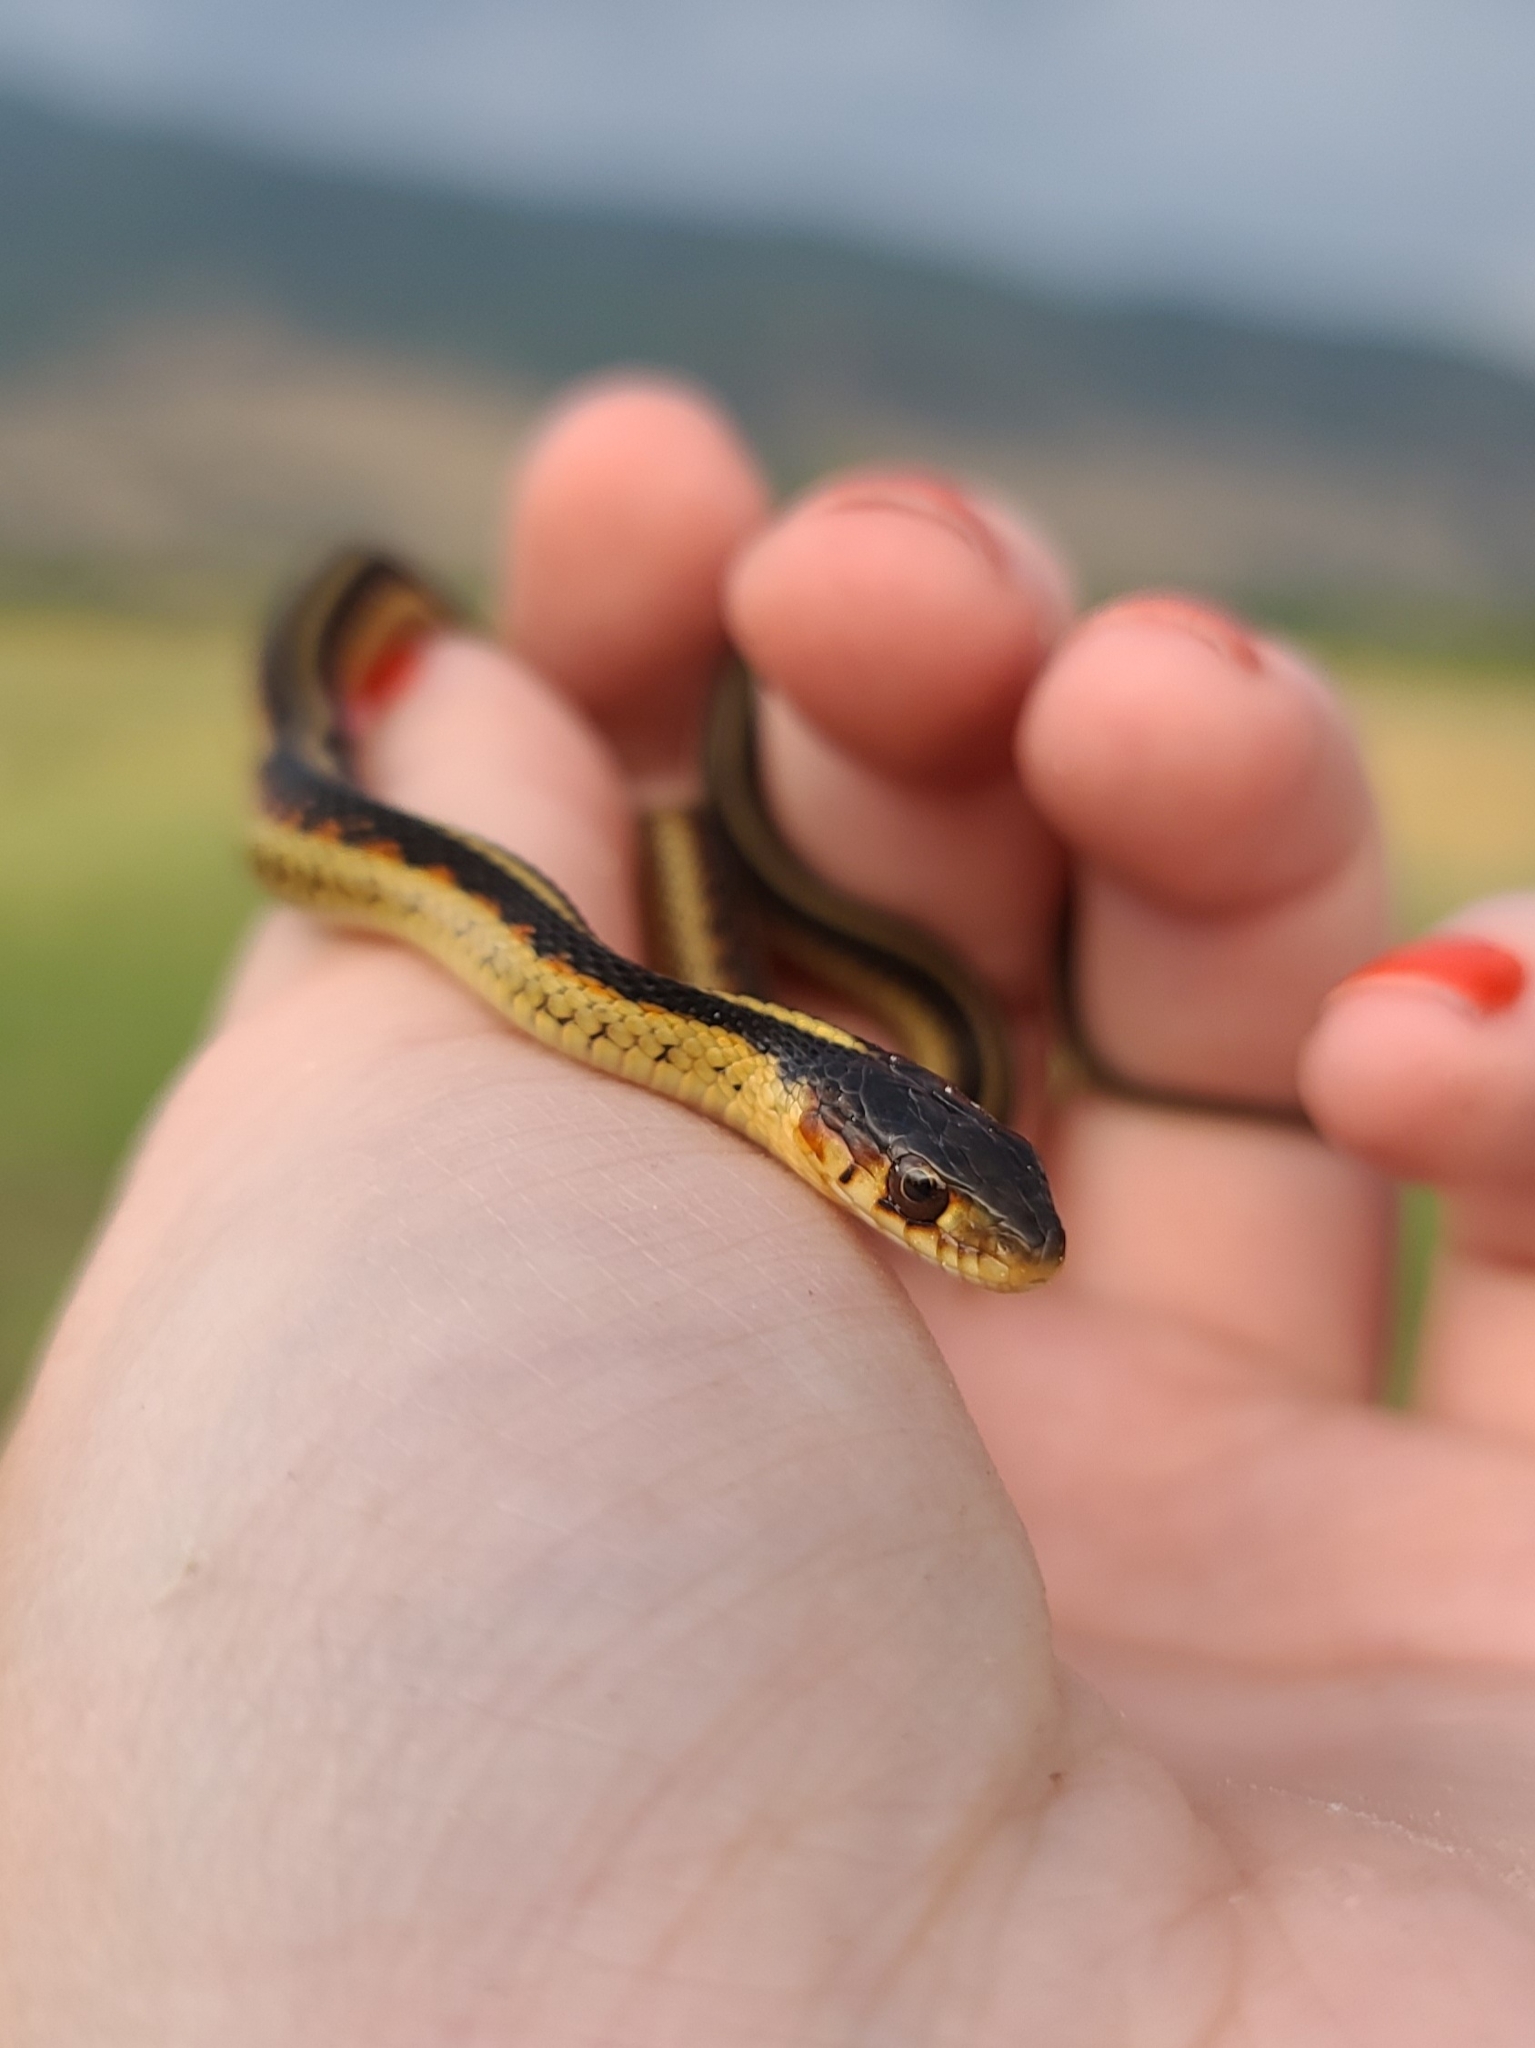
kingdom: Animalia
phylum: Chordata
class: Squamata
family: Colubridae
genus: Thamnophis
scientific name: Thamnophis sirtalis
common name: Common garter snake
